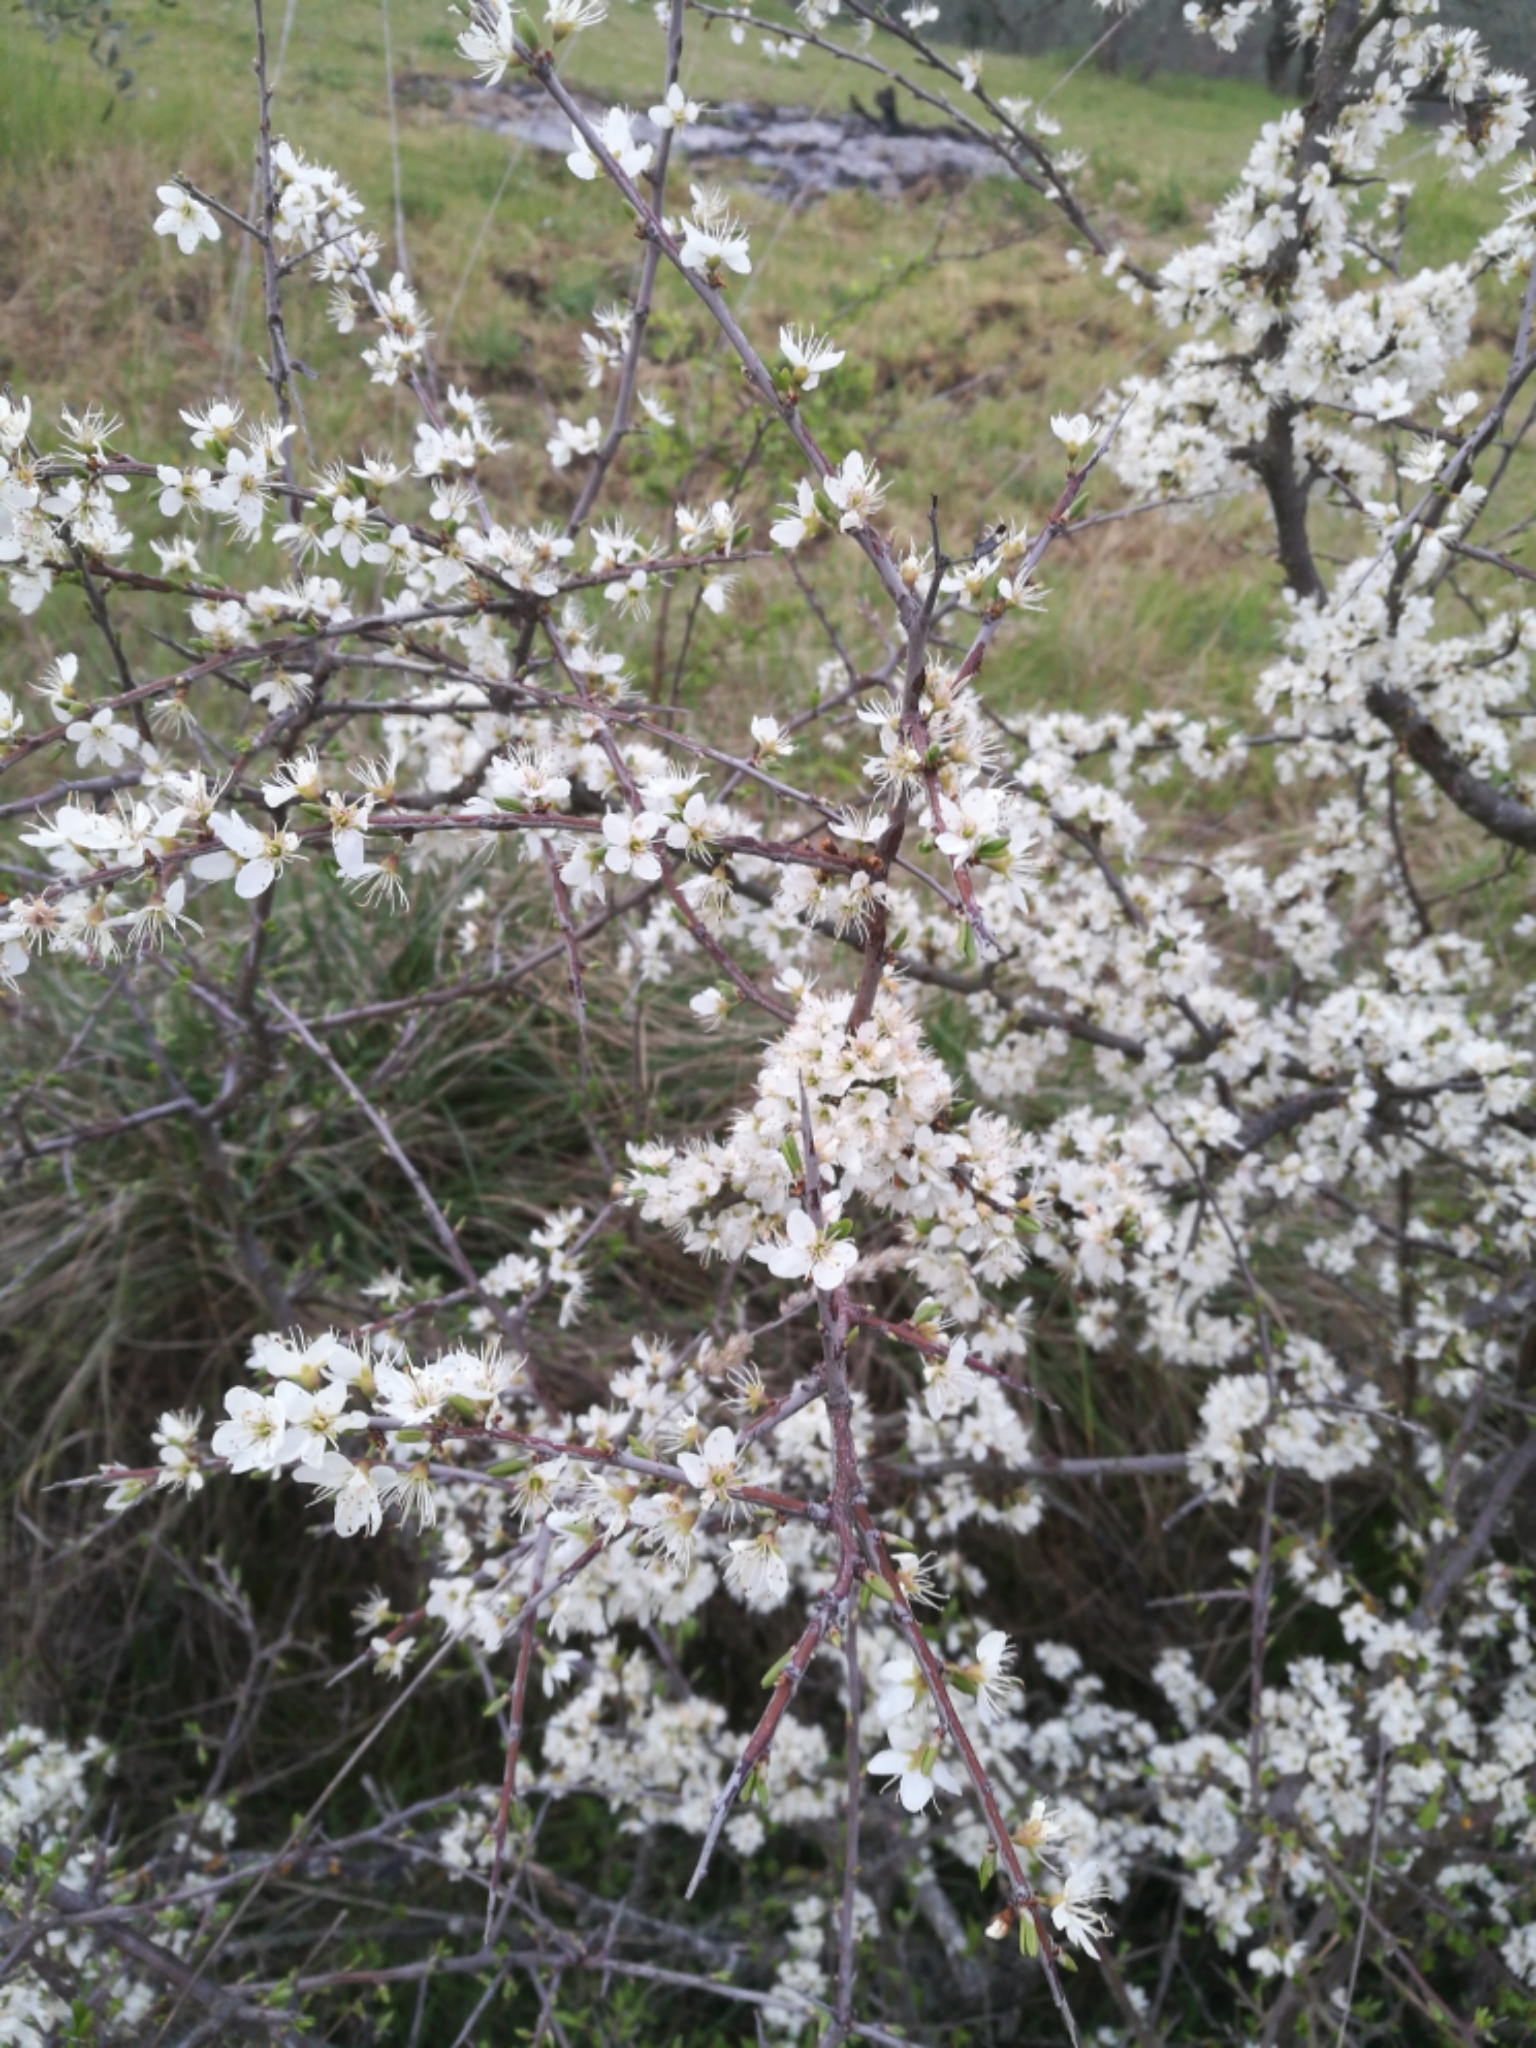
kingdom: Plantae
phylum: Tracheophyta
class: Magnoliopsida
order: Rosales
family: Rosaceae
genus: Prunus
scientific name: Prunus spinosa
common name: Blackthorn
